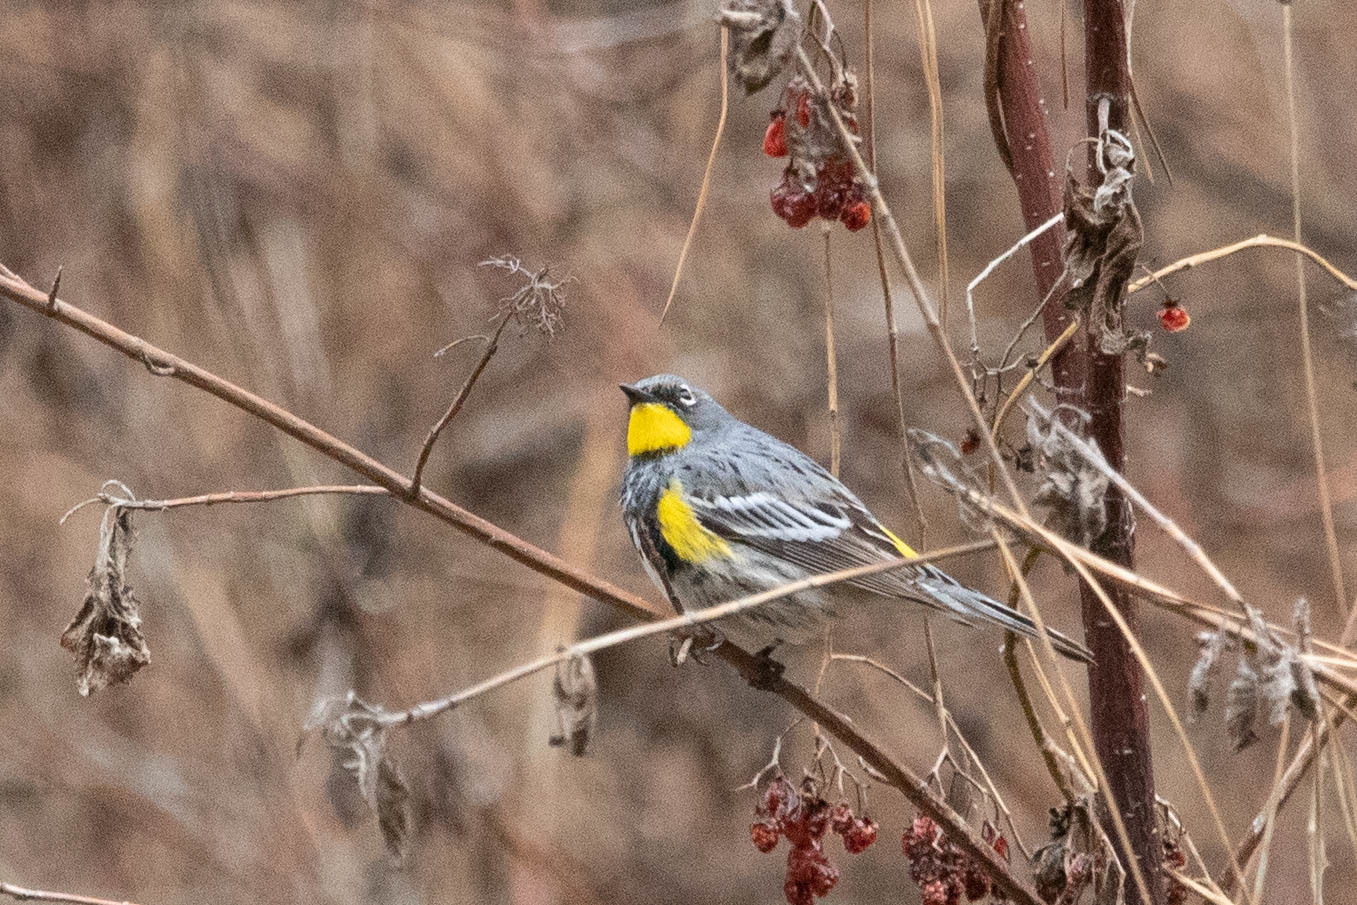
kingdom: Animalia
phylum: Chordata
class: Aves
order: Passeriformes
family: Parulidae
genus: Setophaga
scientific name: Setophaga auduboni
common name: Audubon's warbler
